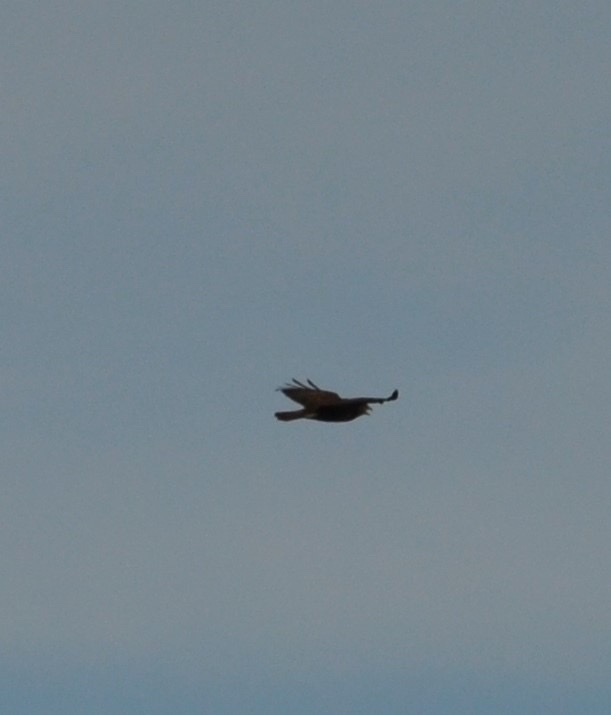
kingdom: Animalia
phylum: Chordata
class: Aves
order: Accipitriformes
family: Accipitridae
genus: Buteo
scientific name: Buteo buteo
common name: Common buzzard
